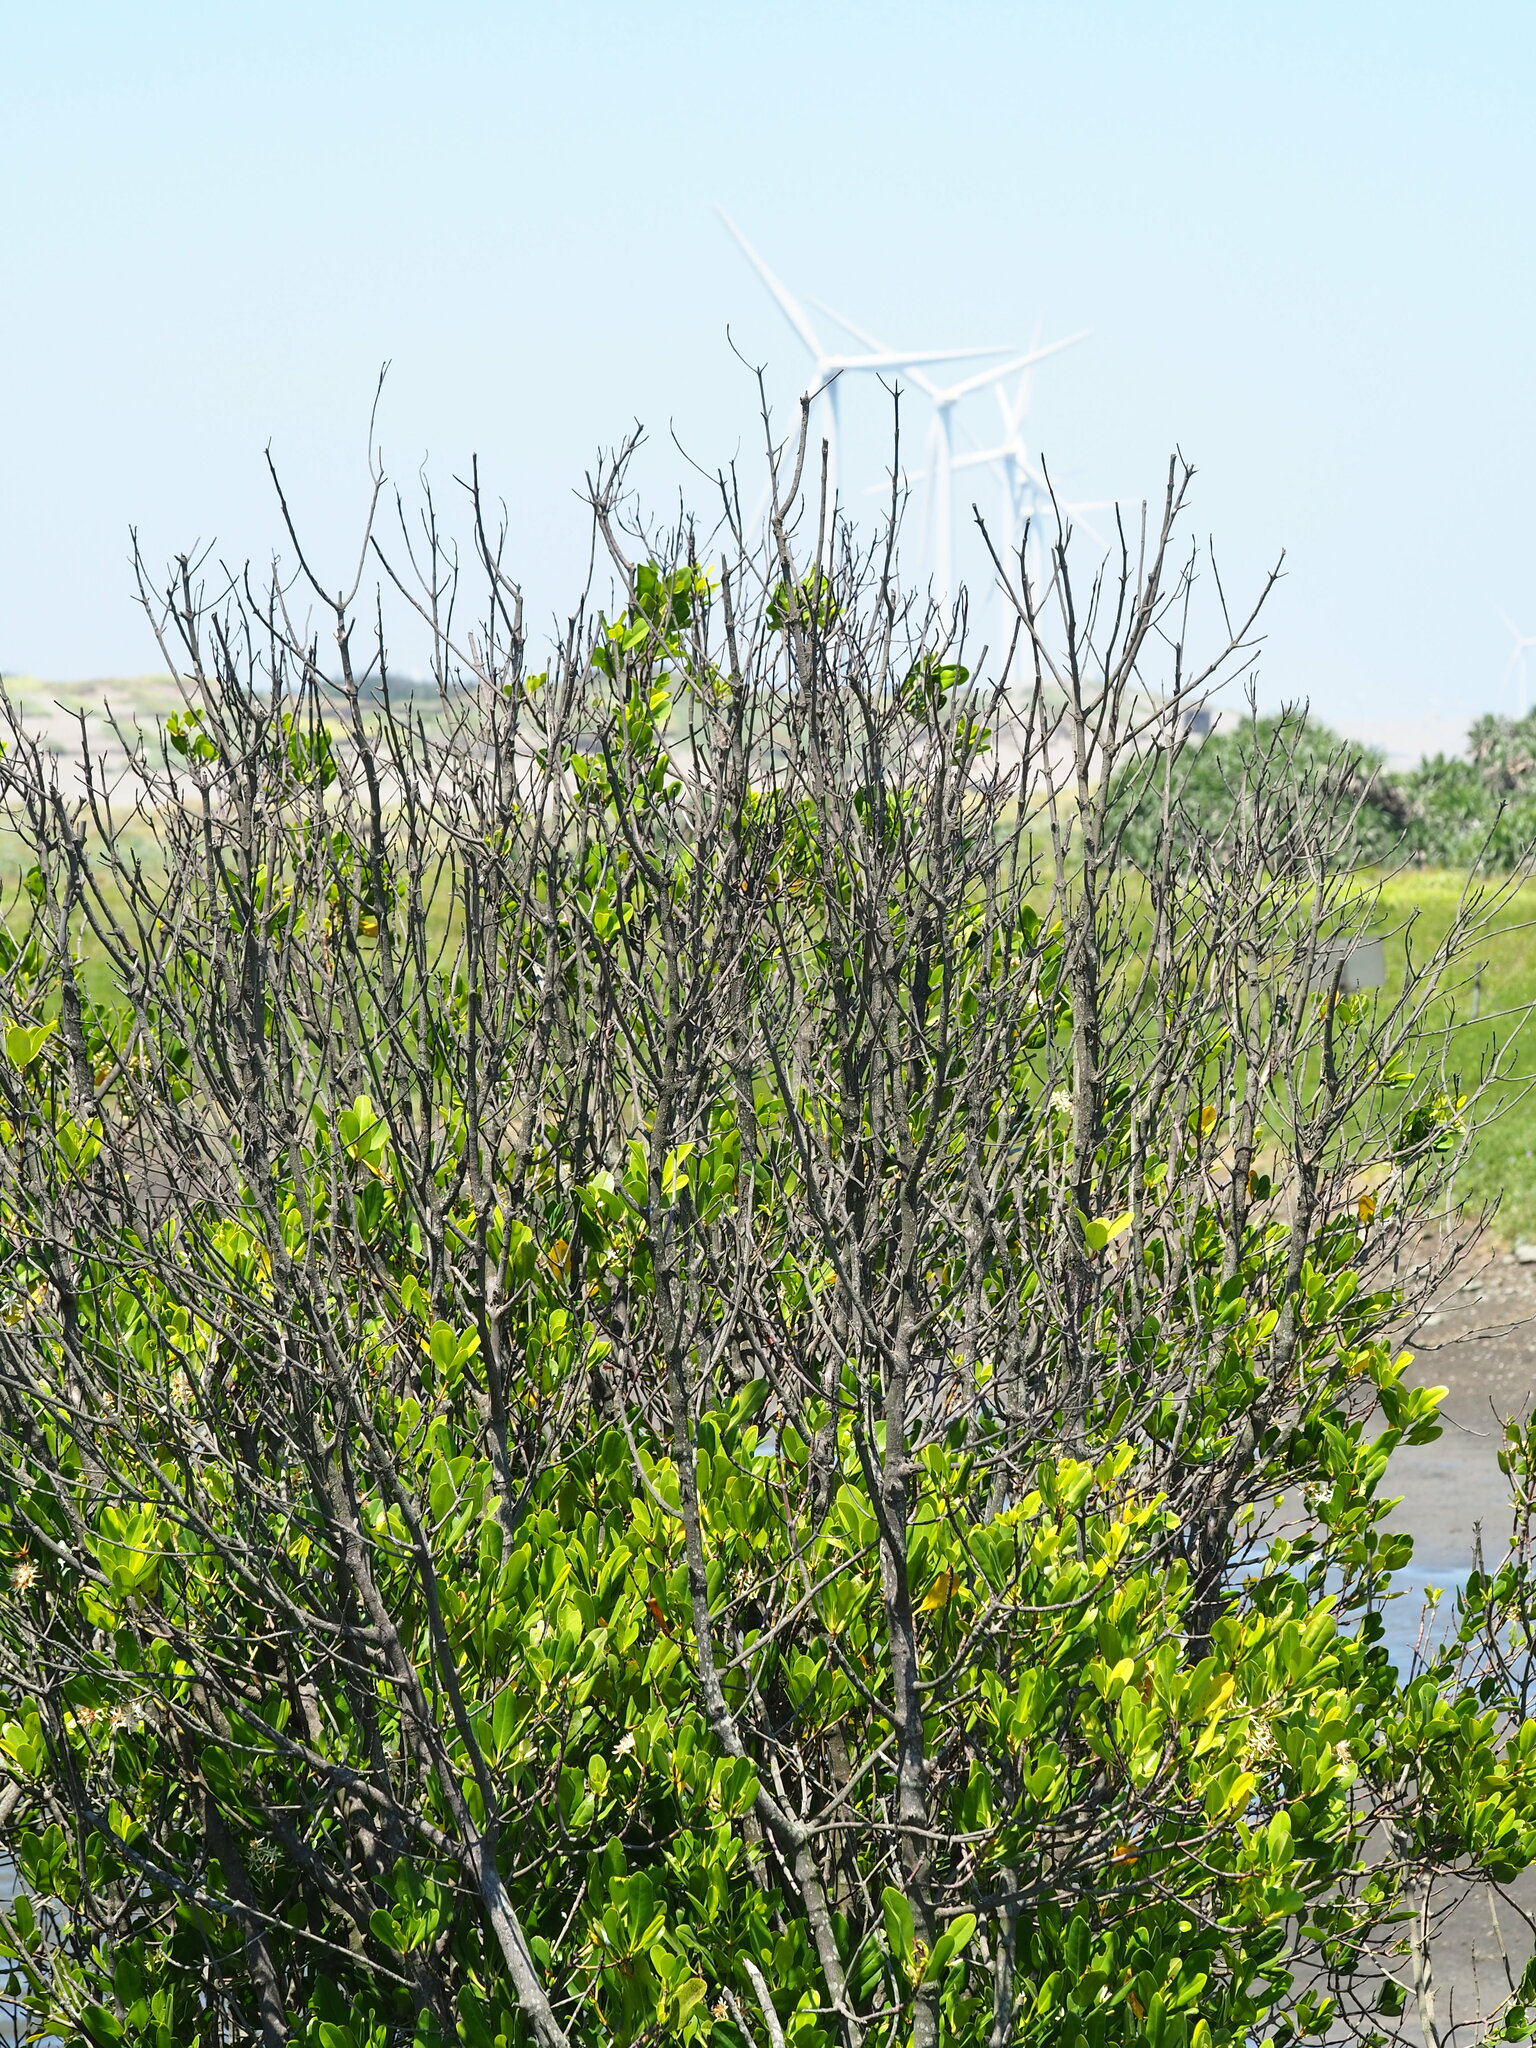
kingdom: Plantae
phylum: Tracheophyta
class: Magnoliopsida
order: Malpighiales
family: Rhizophoraceae
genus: Kandelia
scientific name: Kandelia obovata
